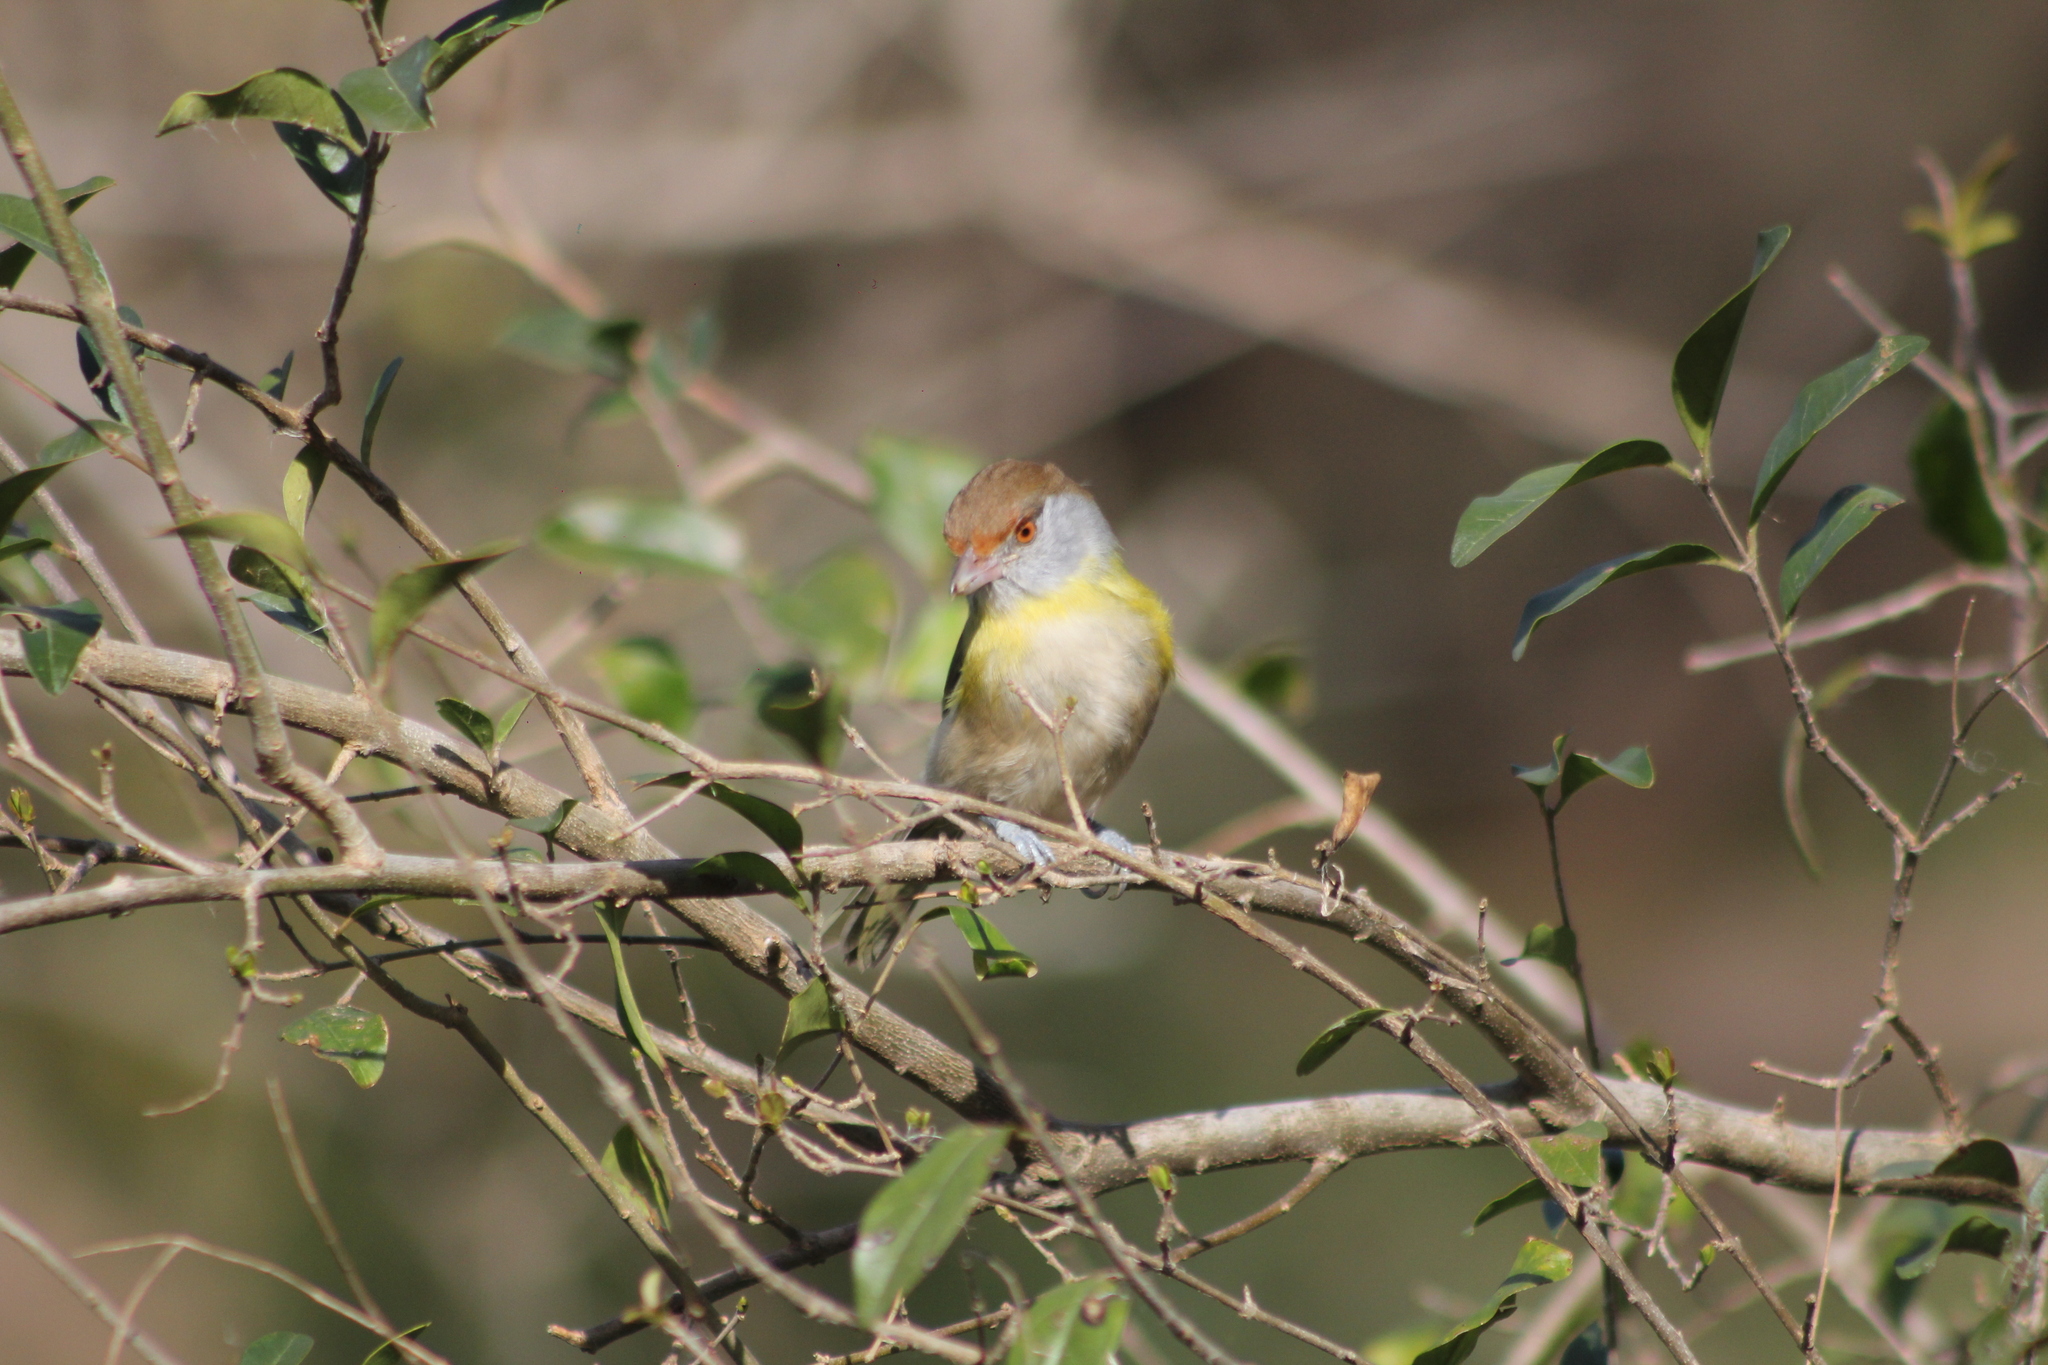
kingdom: Animalia
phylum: Chordata
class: Aves
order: Passeriformes
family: Vireonidae
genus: Cyclarhis
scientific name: Cyclarhis gujanensis
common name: Rufous-browed peppershrike
